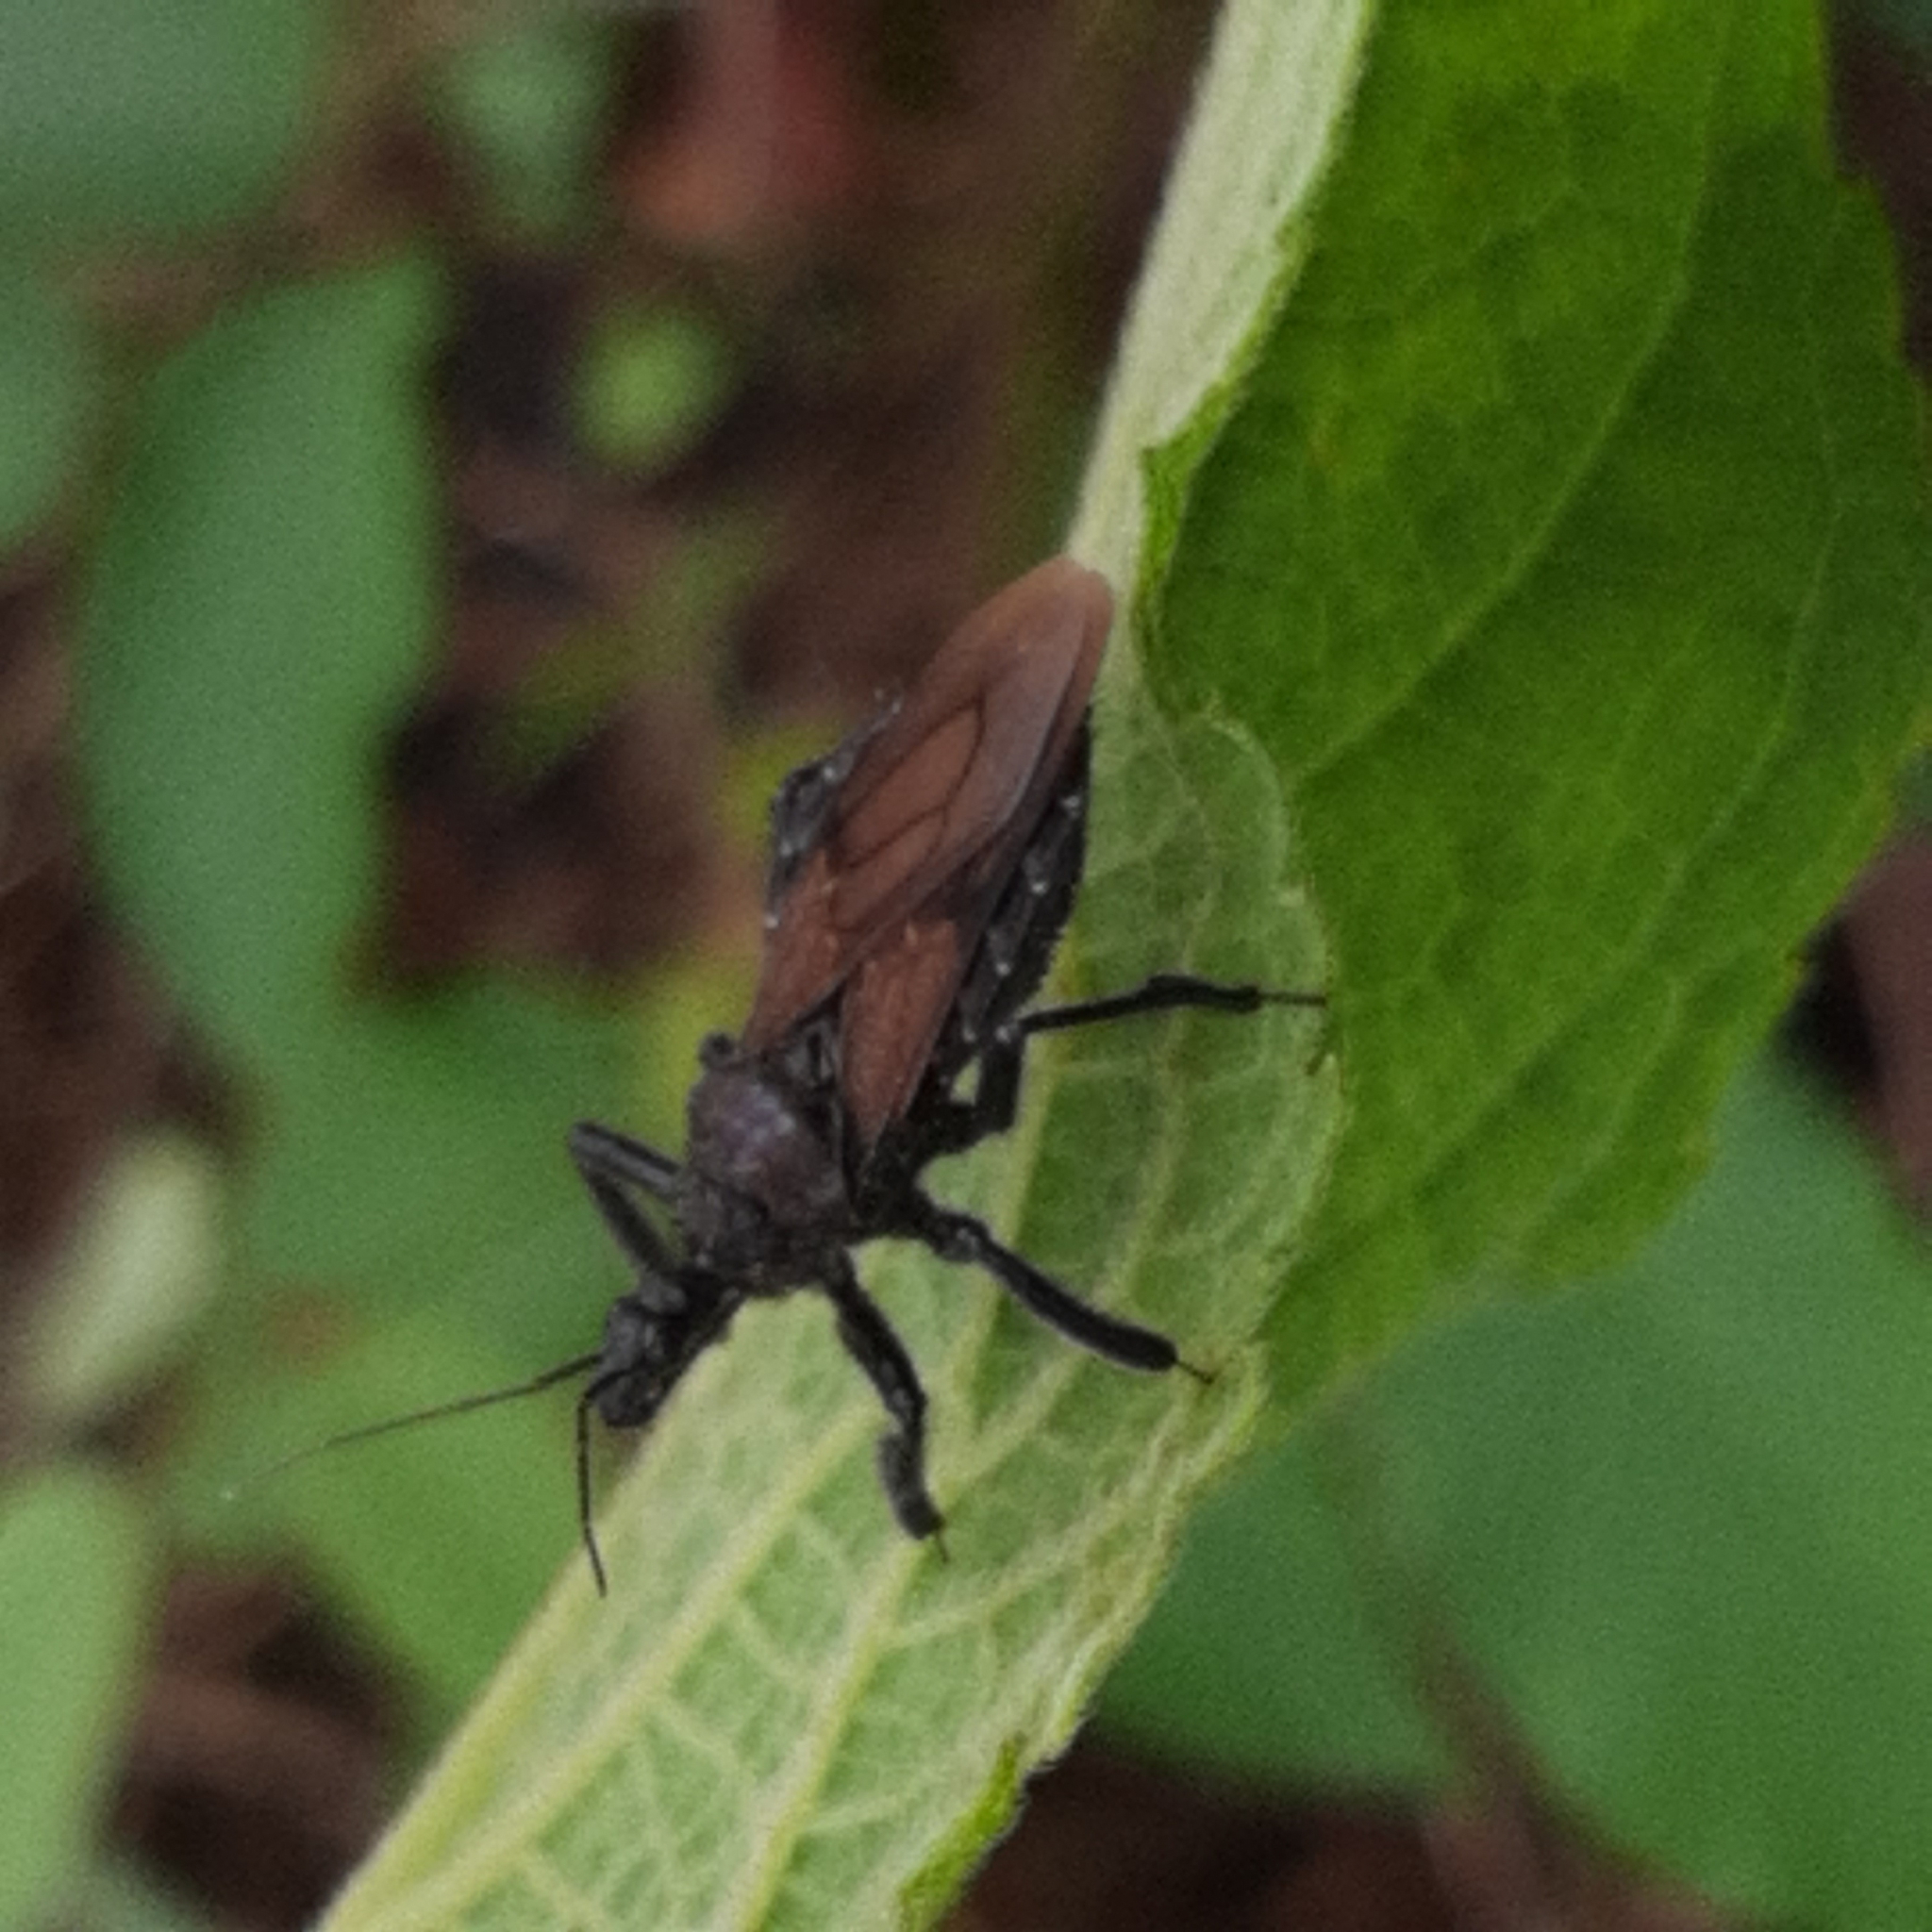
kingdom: Animalia
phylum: Arthropoda
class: Insecta
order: Hemiptera
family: Reduviidae
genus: Apiomerus
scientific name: Apiomerus subpiceus
